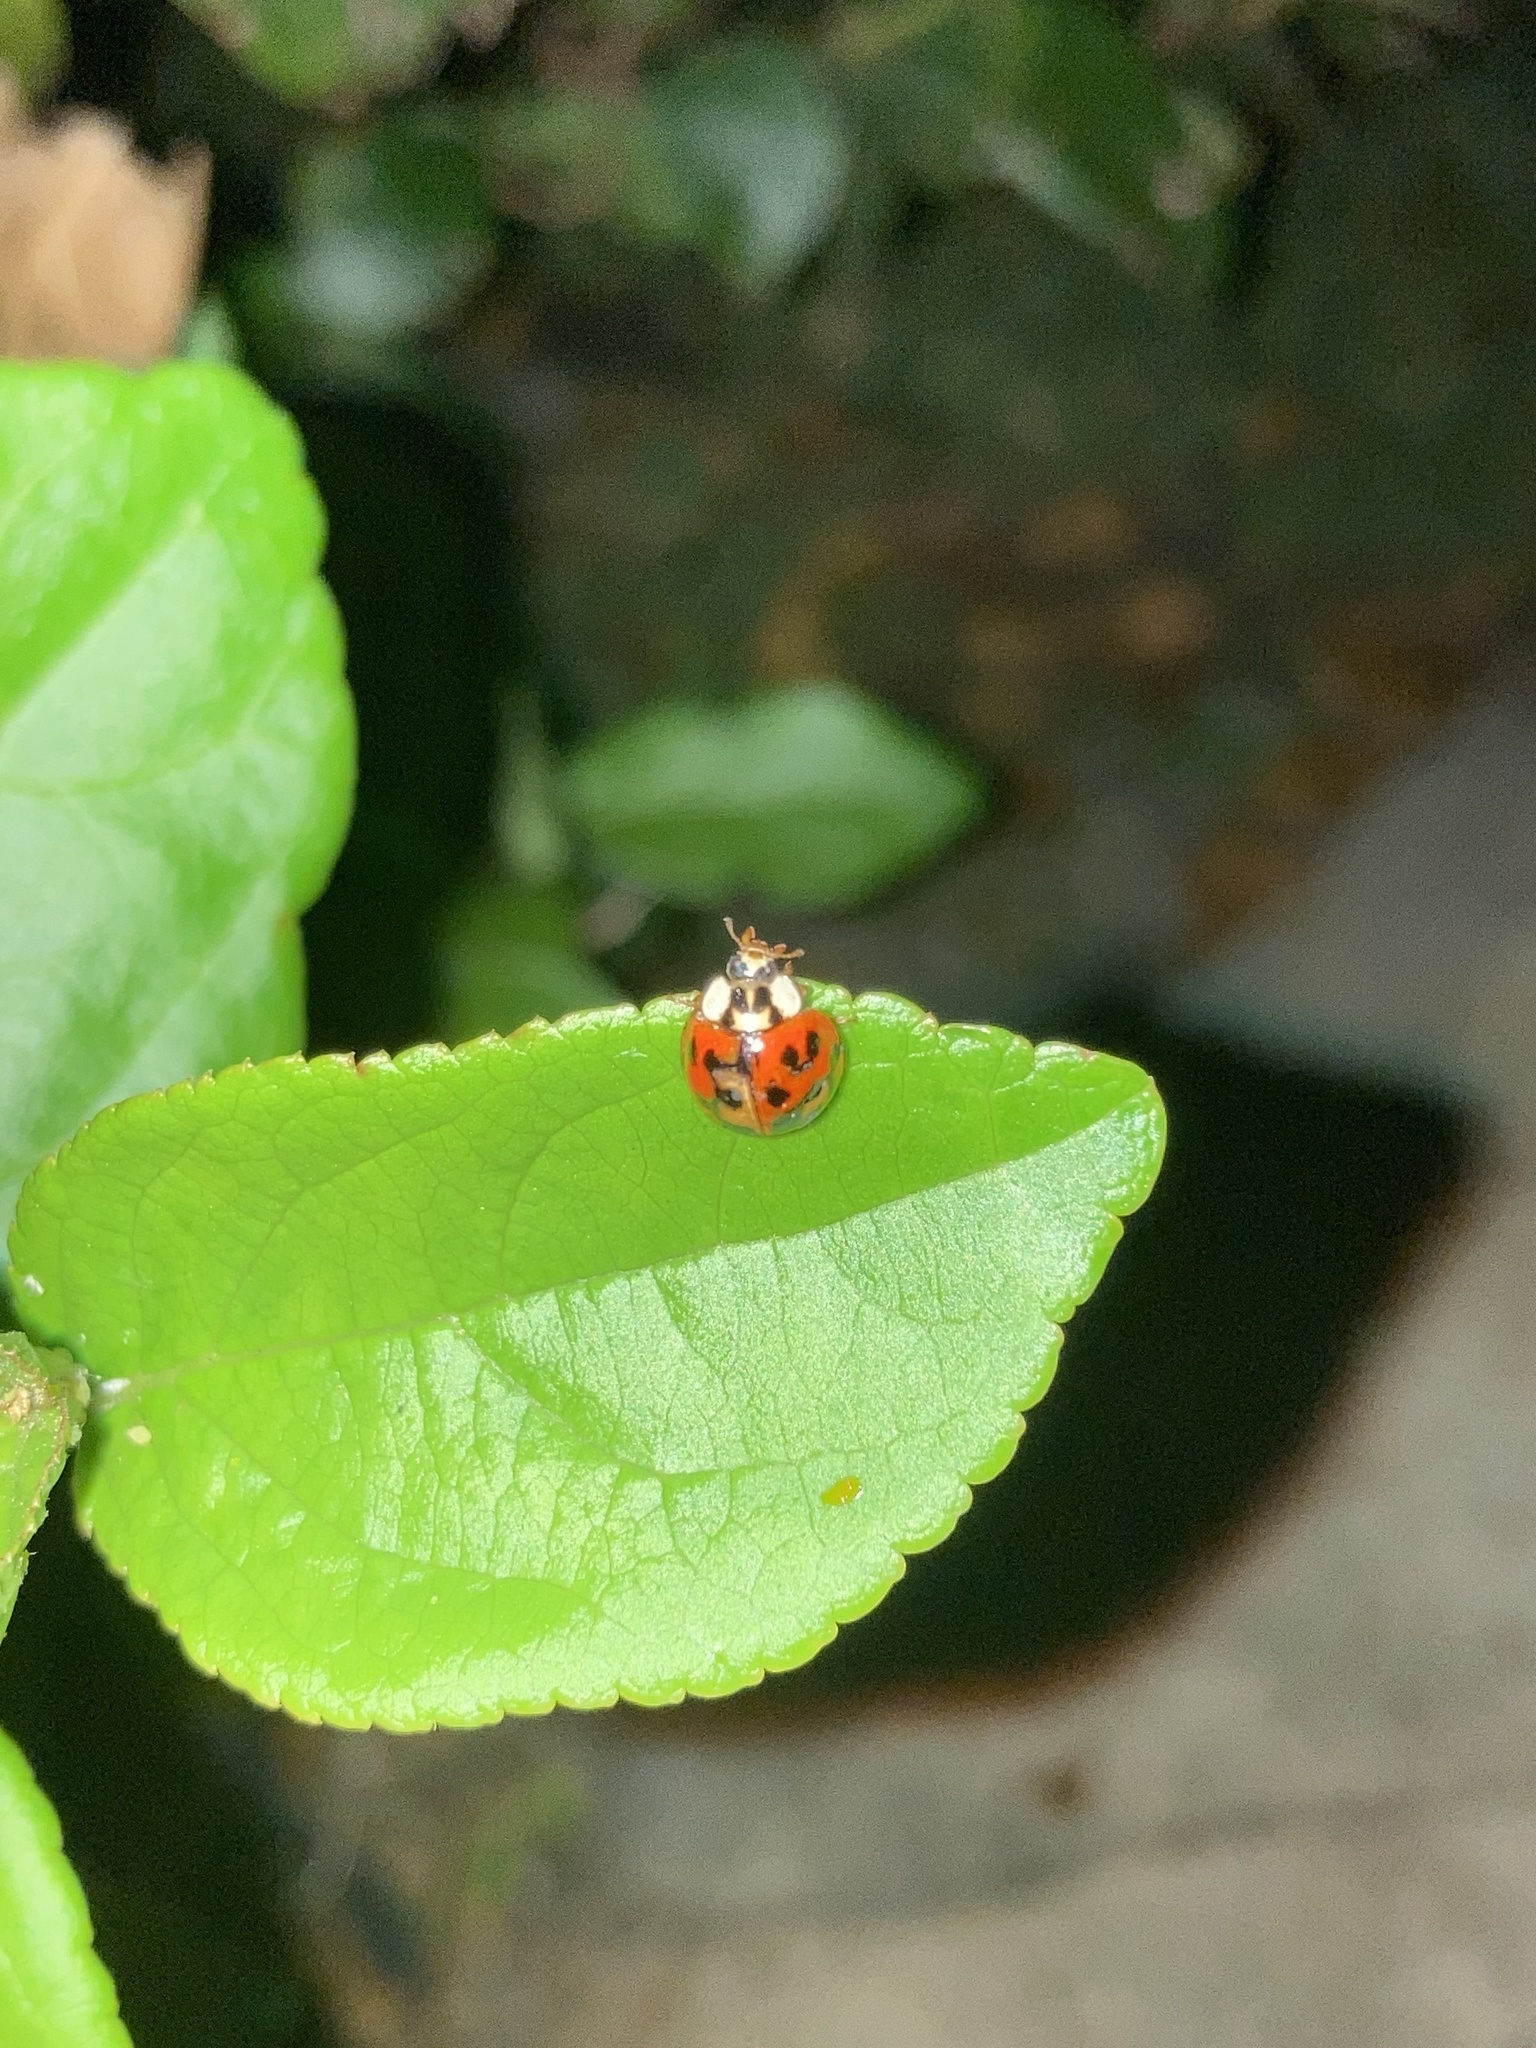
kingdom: Animalia
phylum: Arthropoda
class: Insecta
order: Coleoptera
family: Coccinellidae
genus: Harmonia
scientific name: Harmonia axyridis
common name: Harlequin ladybird
